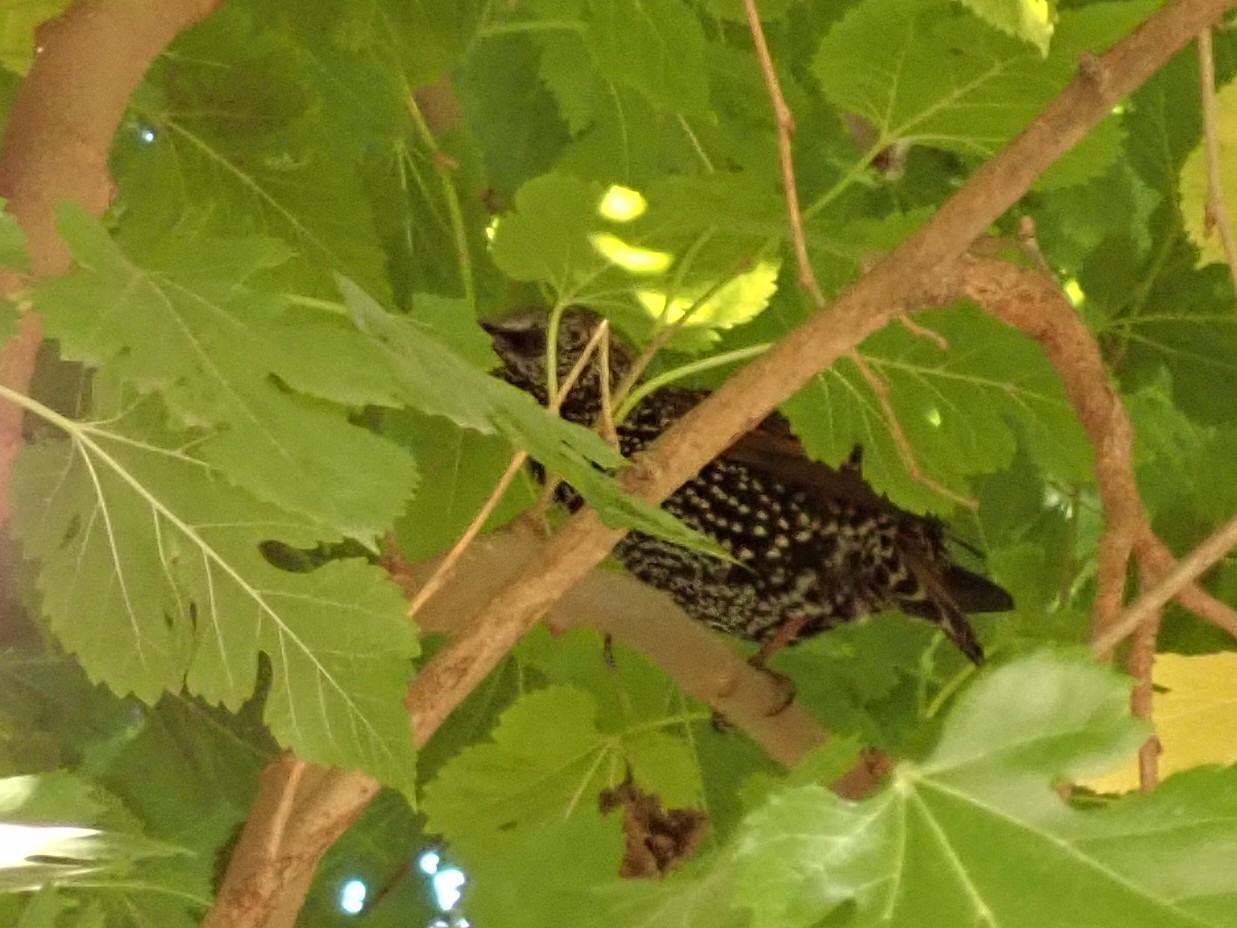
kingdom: Animalia
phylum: Chordata
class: Aves
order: Passeriformes
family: Sturnidae
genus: Sturnus
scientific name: Sturnus vulgaris
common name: Common starling
